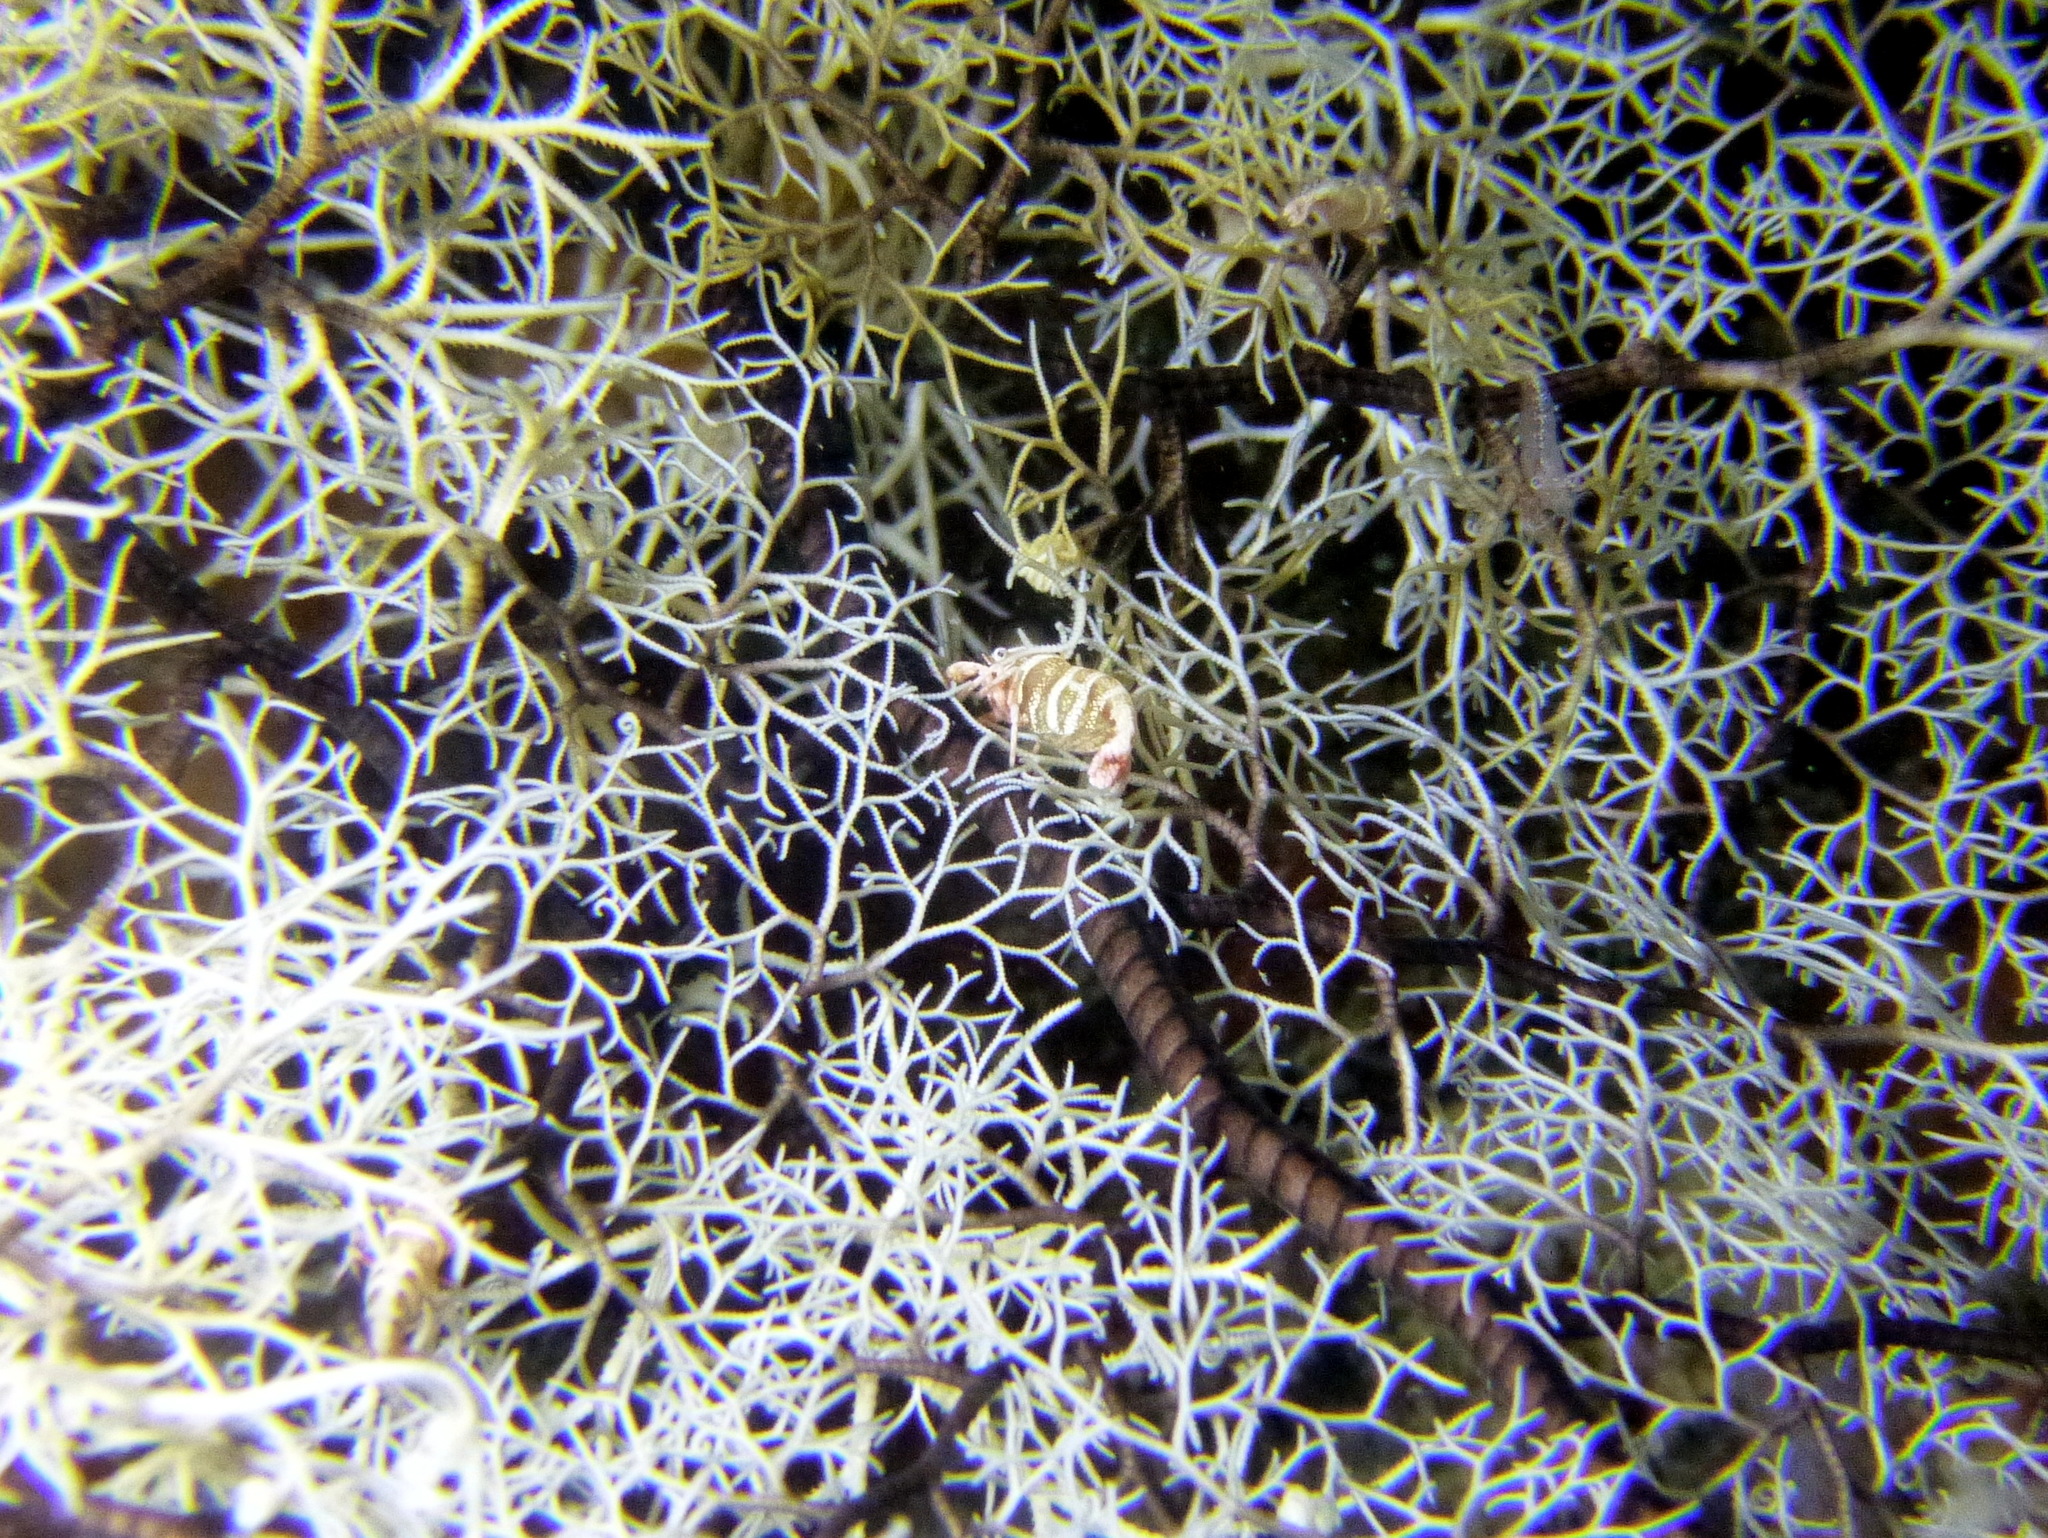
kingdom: Animalia
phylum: Arthropoda
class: Malacostraca
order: Decapoda
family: Palaemonidae
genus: Lipkemenes
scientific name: Lipkemenes lanipes
